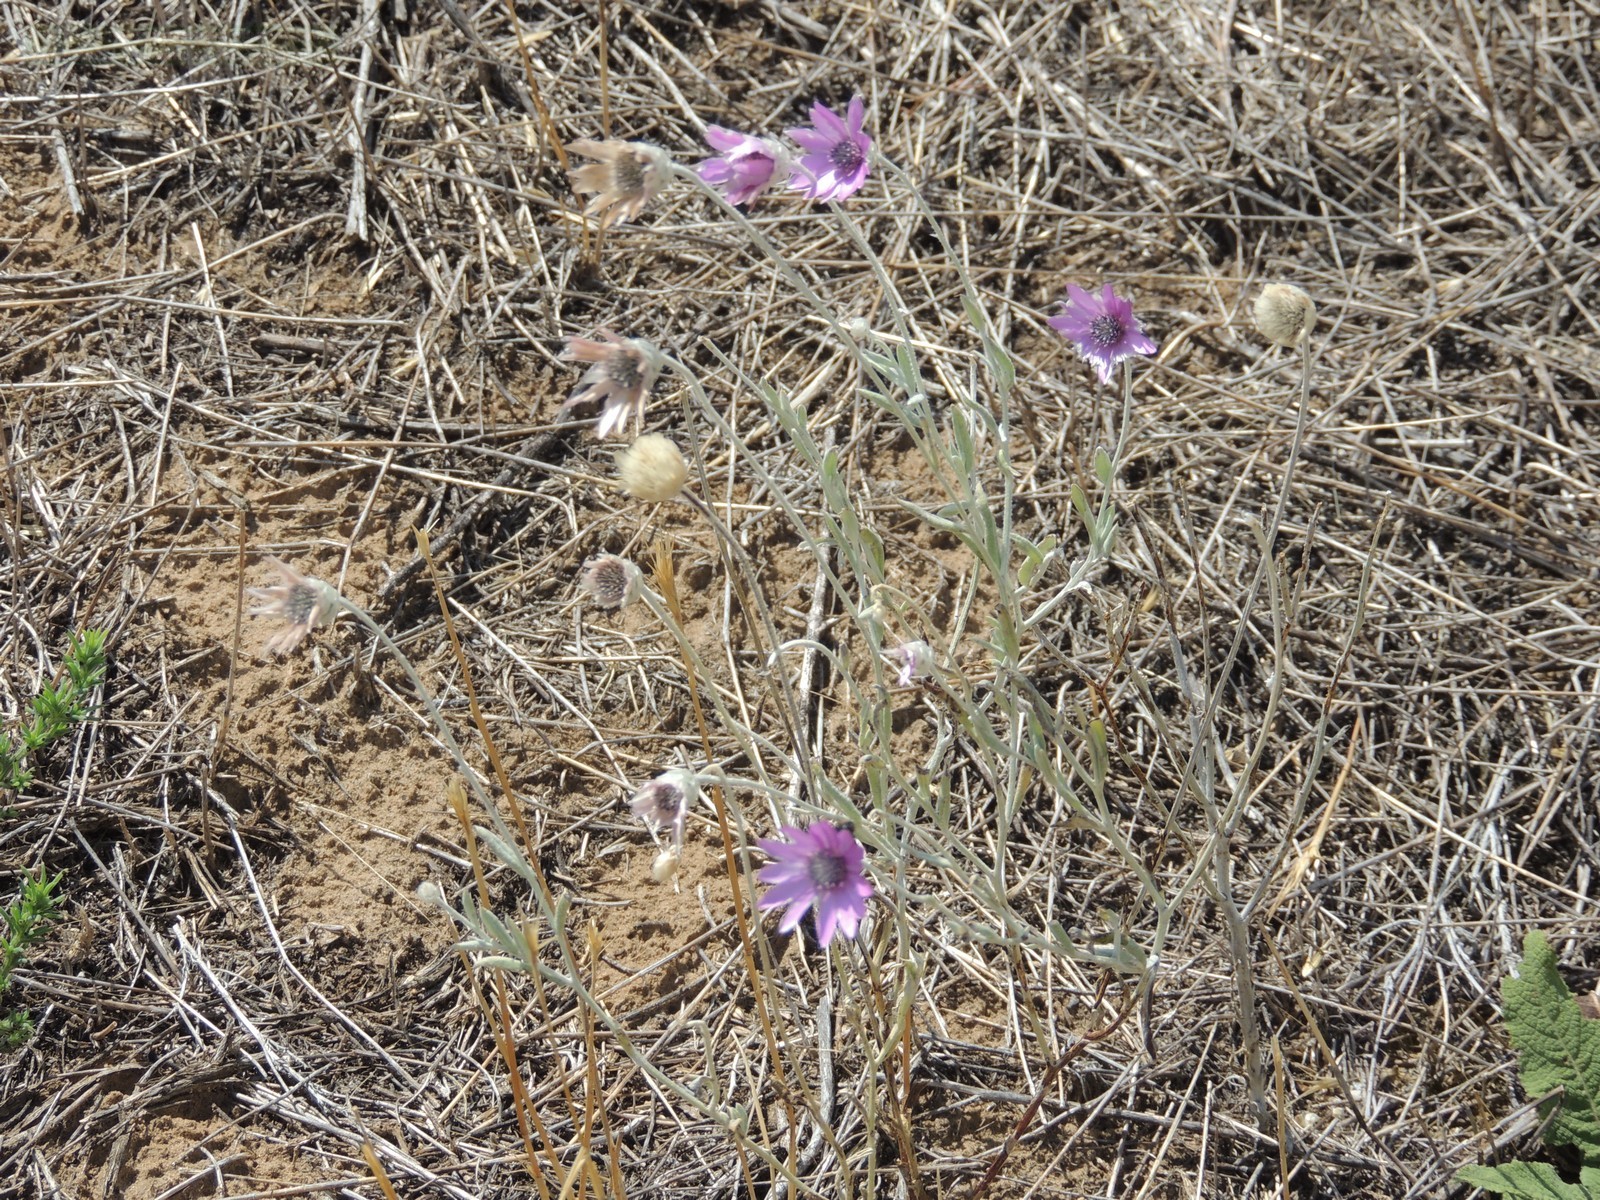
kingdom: Plantae
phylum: Tracheophyta
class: Magnoliopsida
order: Asterales
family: Asteraceae
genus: Xeranthemum
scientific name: Xeranthemum annuum
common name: Immortelle
